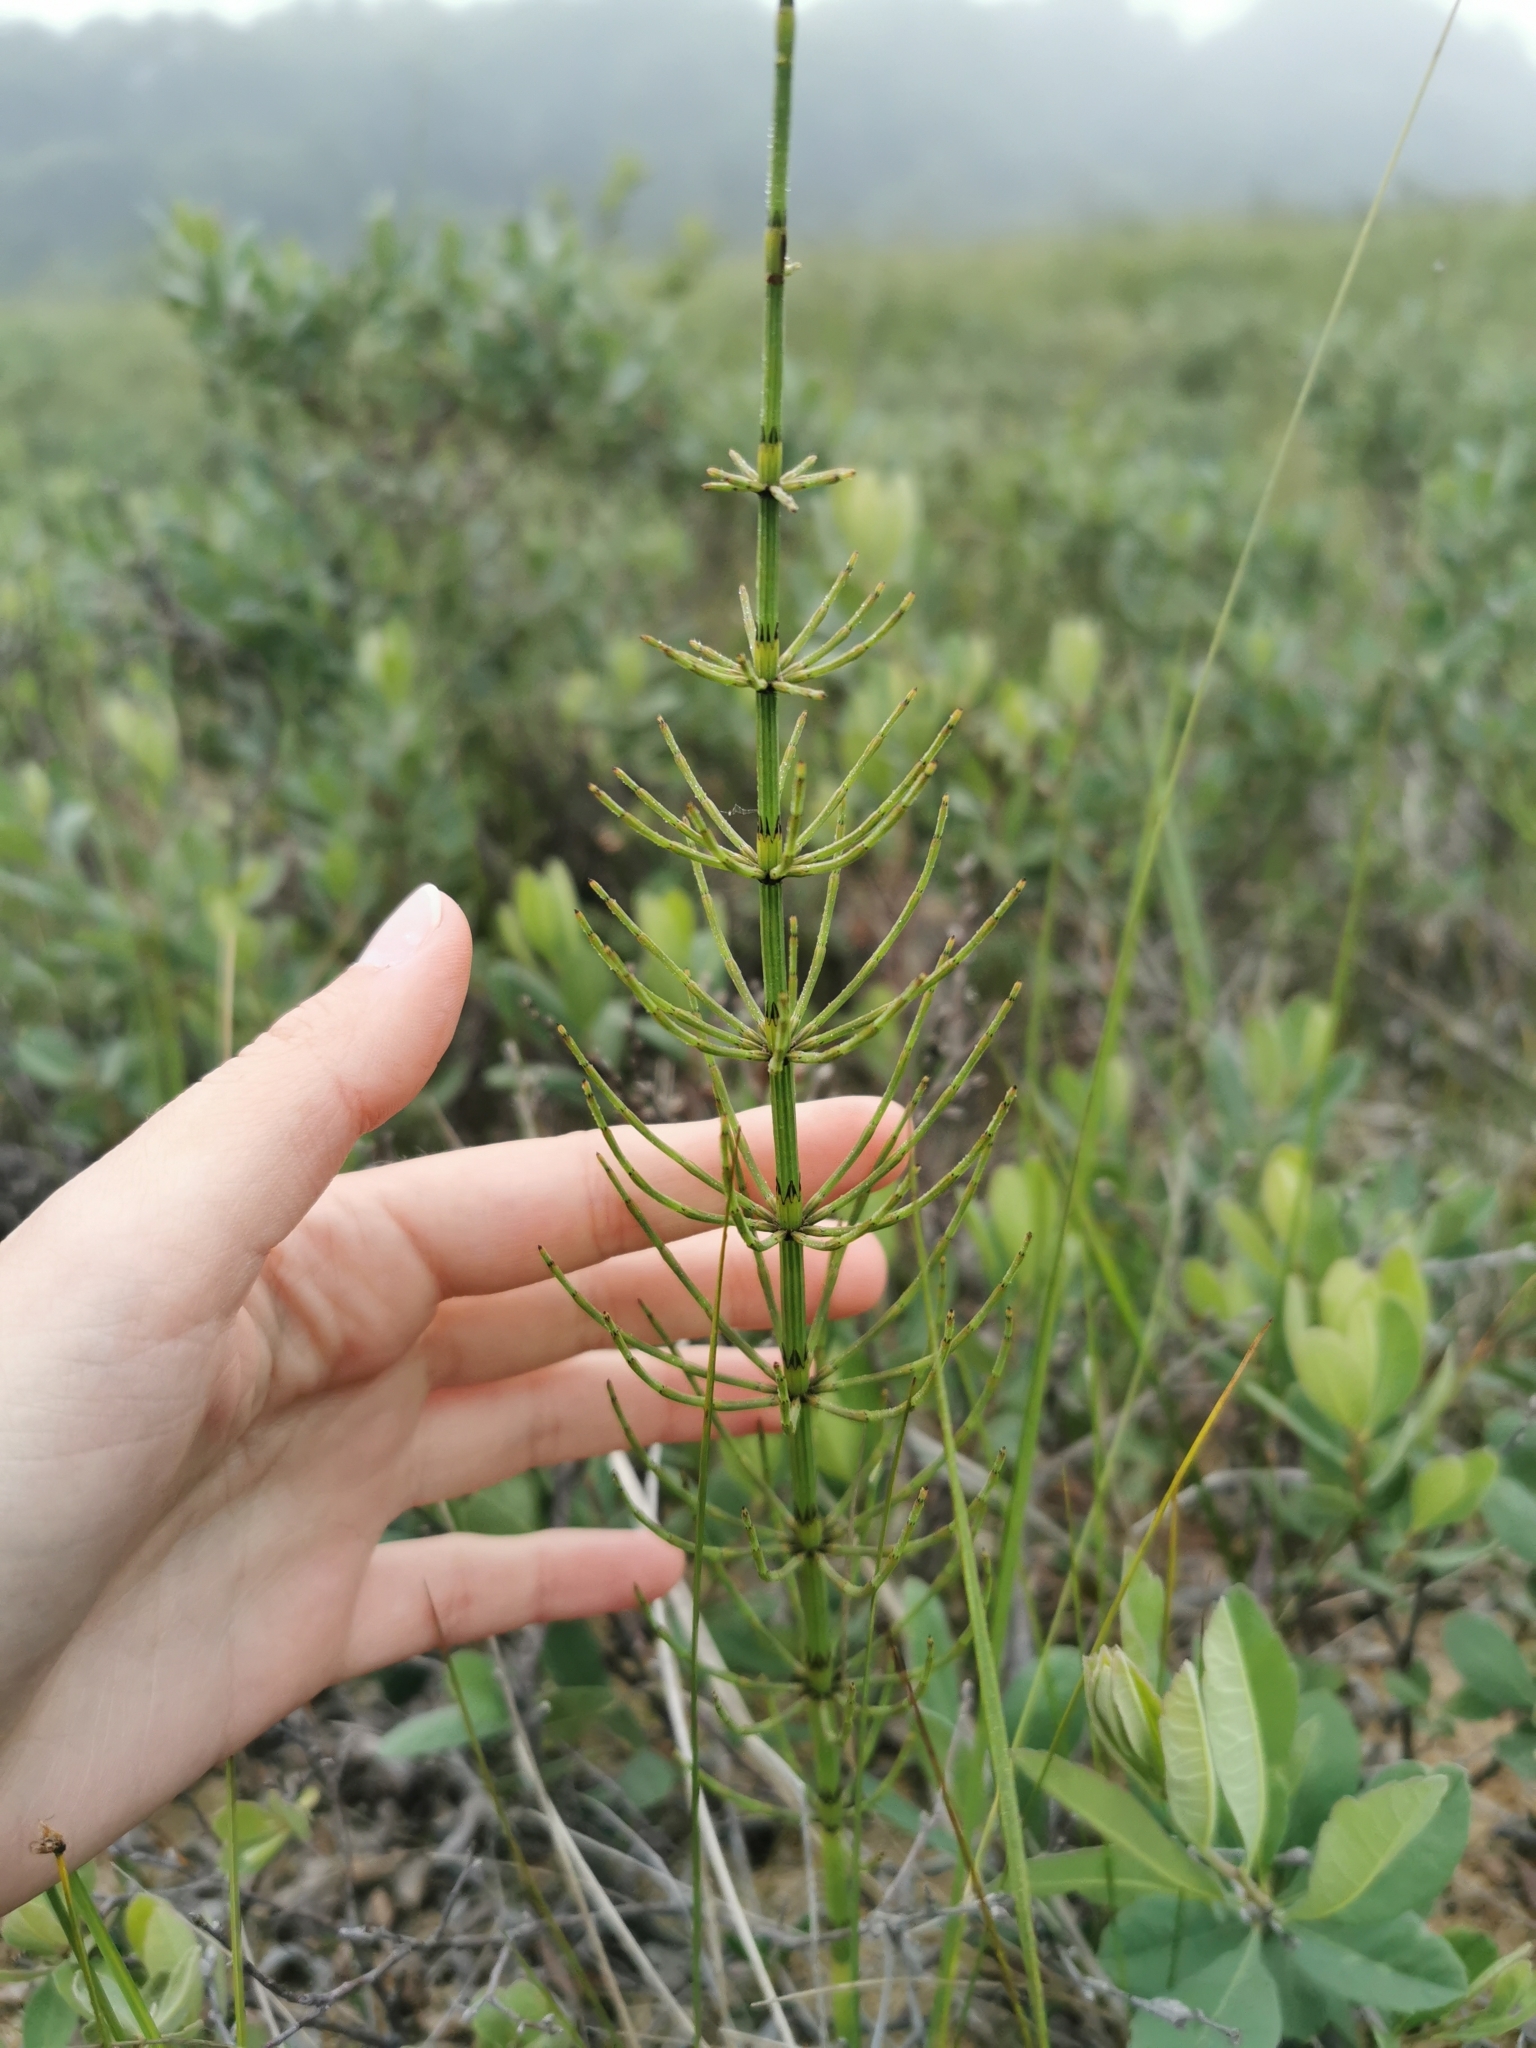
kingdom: Plantae
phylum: Tracheophyta
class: Polypodiopsida
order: Equisetales
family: Equisetaceae
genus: Equisetum
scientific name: Equisetum palustre
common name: Marsh horsetail
